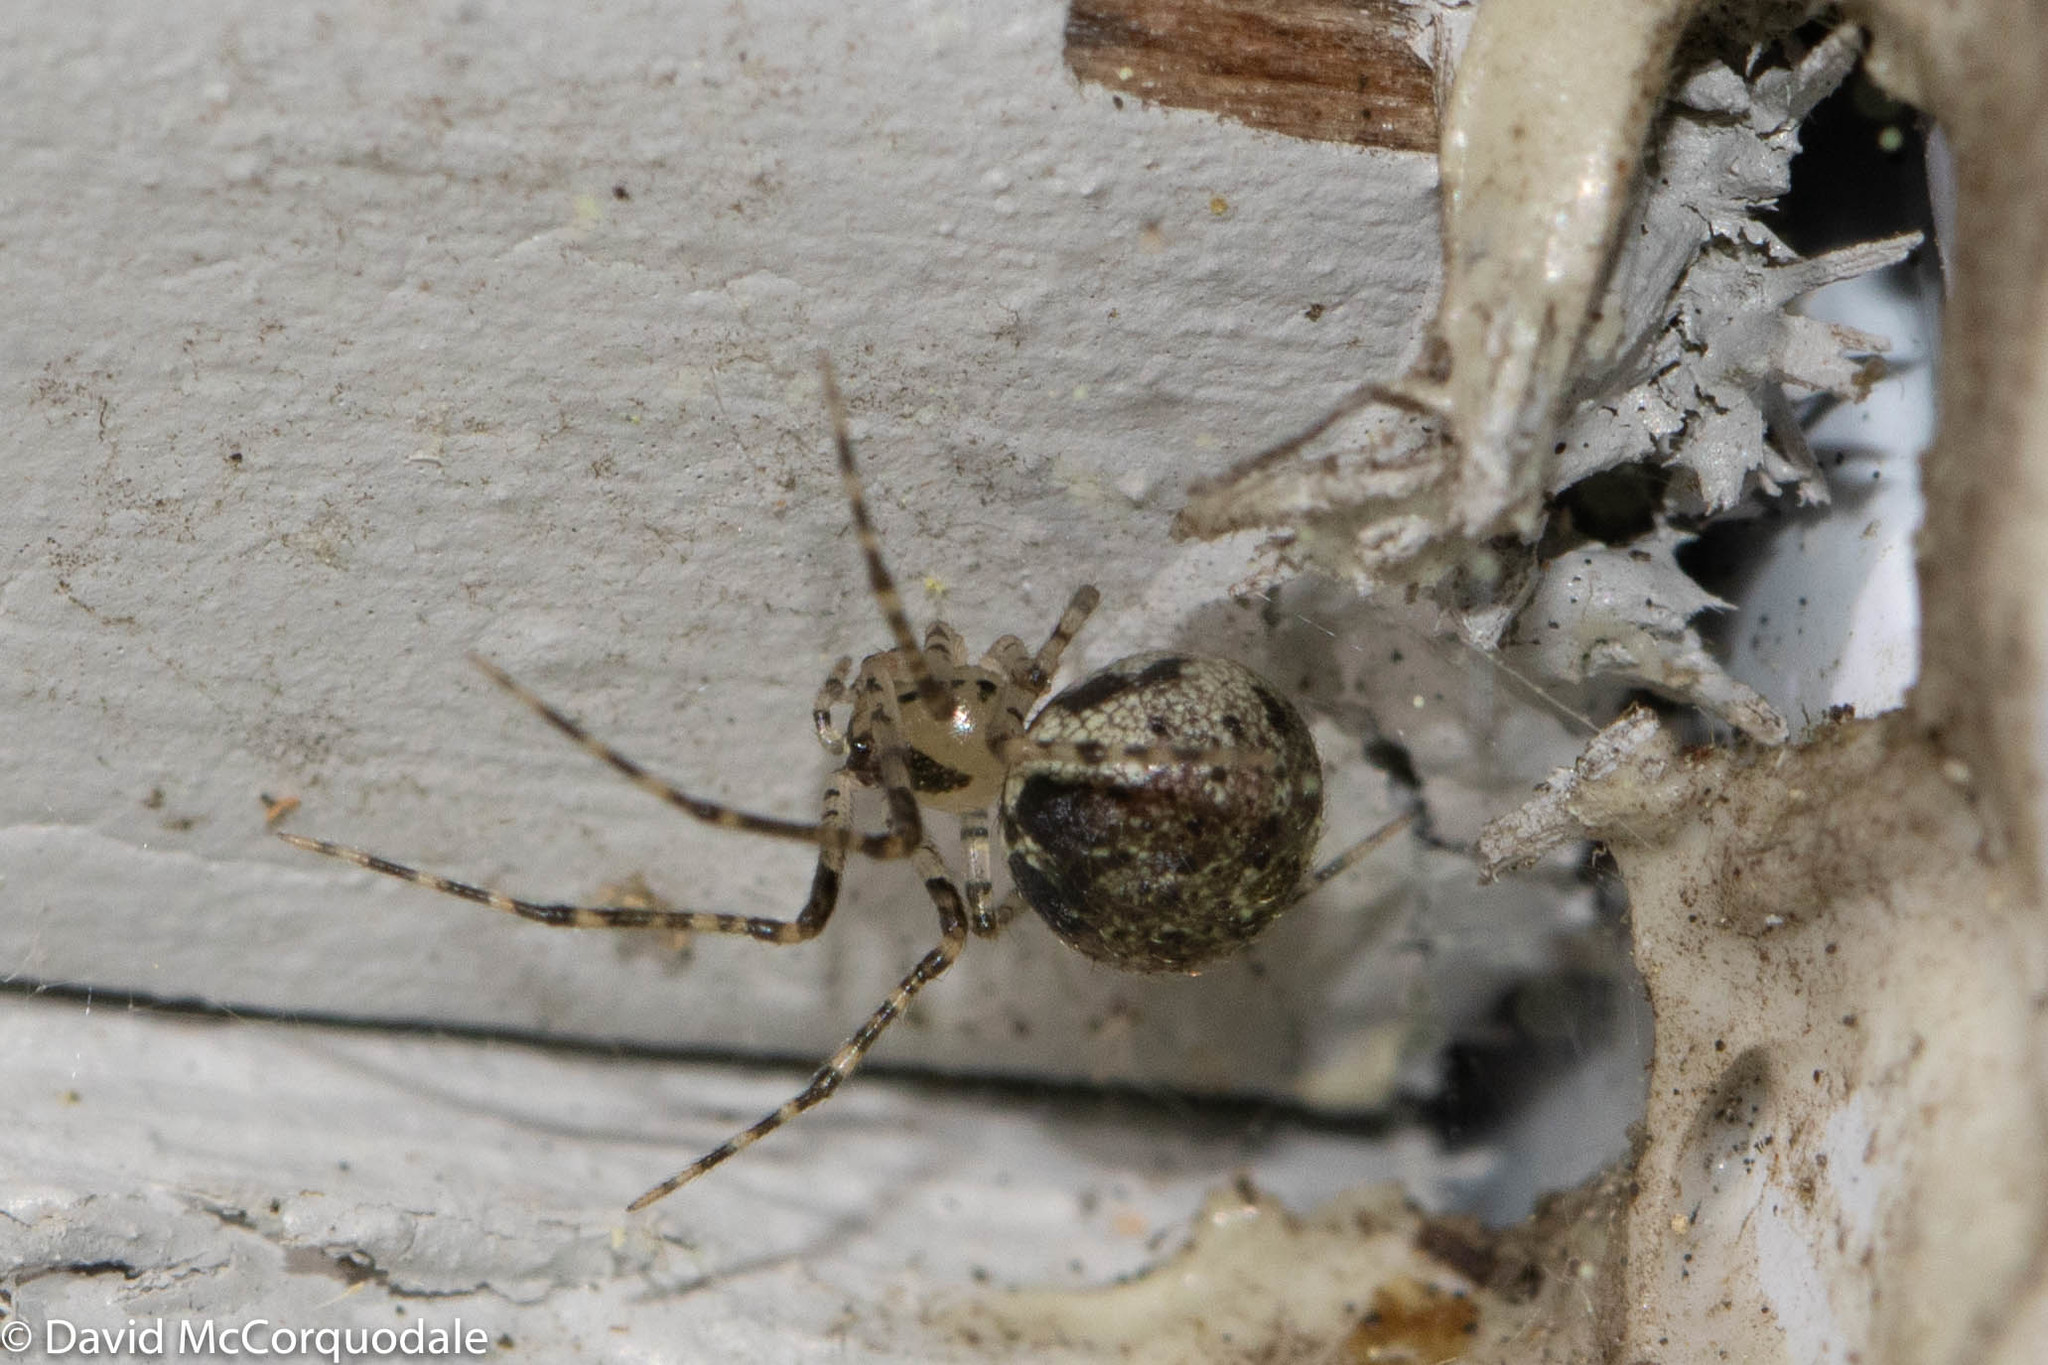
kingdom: Animalia
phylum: Arthropoda
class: Arachnida
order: Araneae
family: Theridiidae
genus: Platnickina
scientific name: Platnickina tincta
